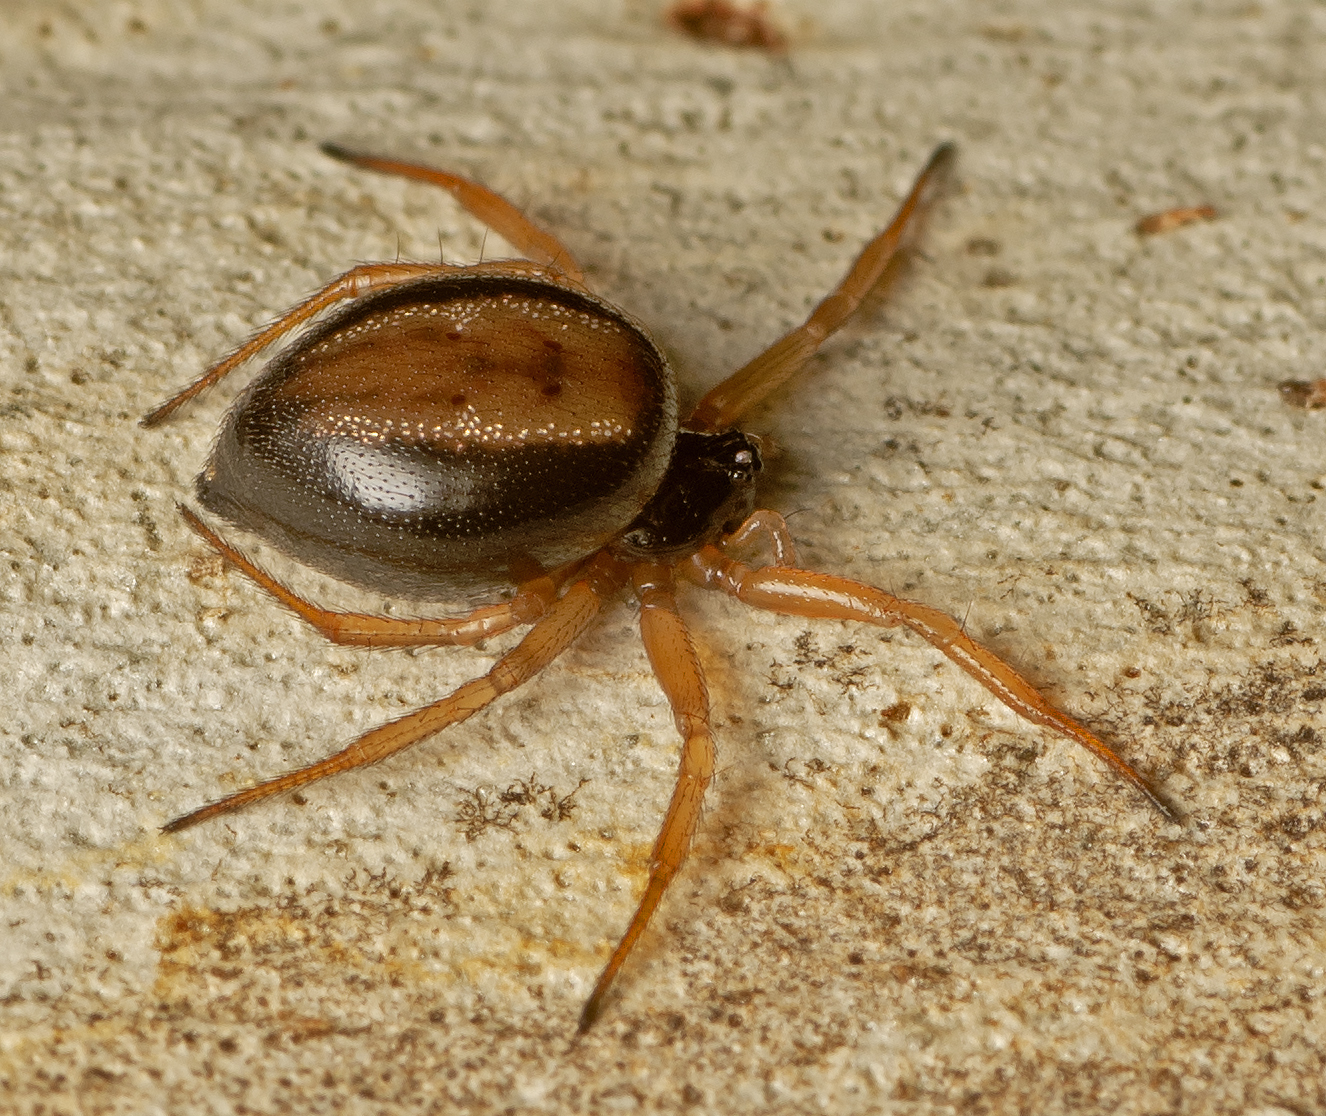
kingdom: Animalia
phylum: Arthropoda
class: Arachnida
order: Araneae
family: Theridiidae
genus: Euryopis
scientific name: Euryopis umbilicata
